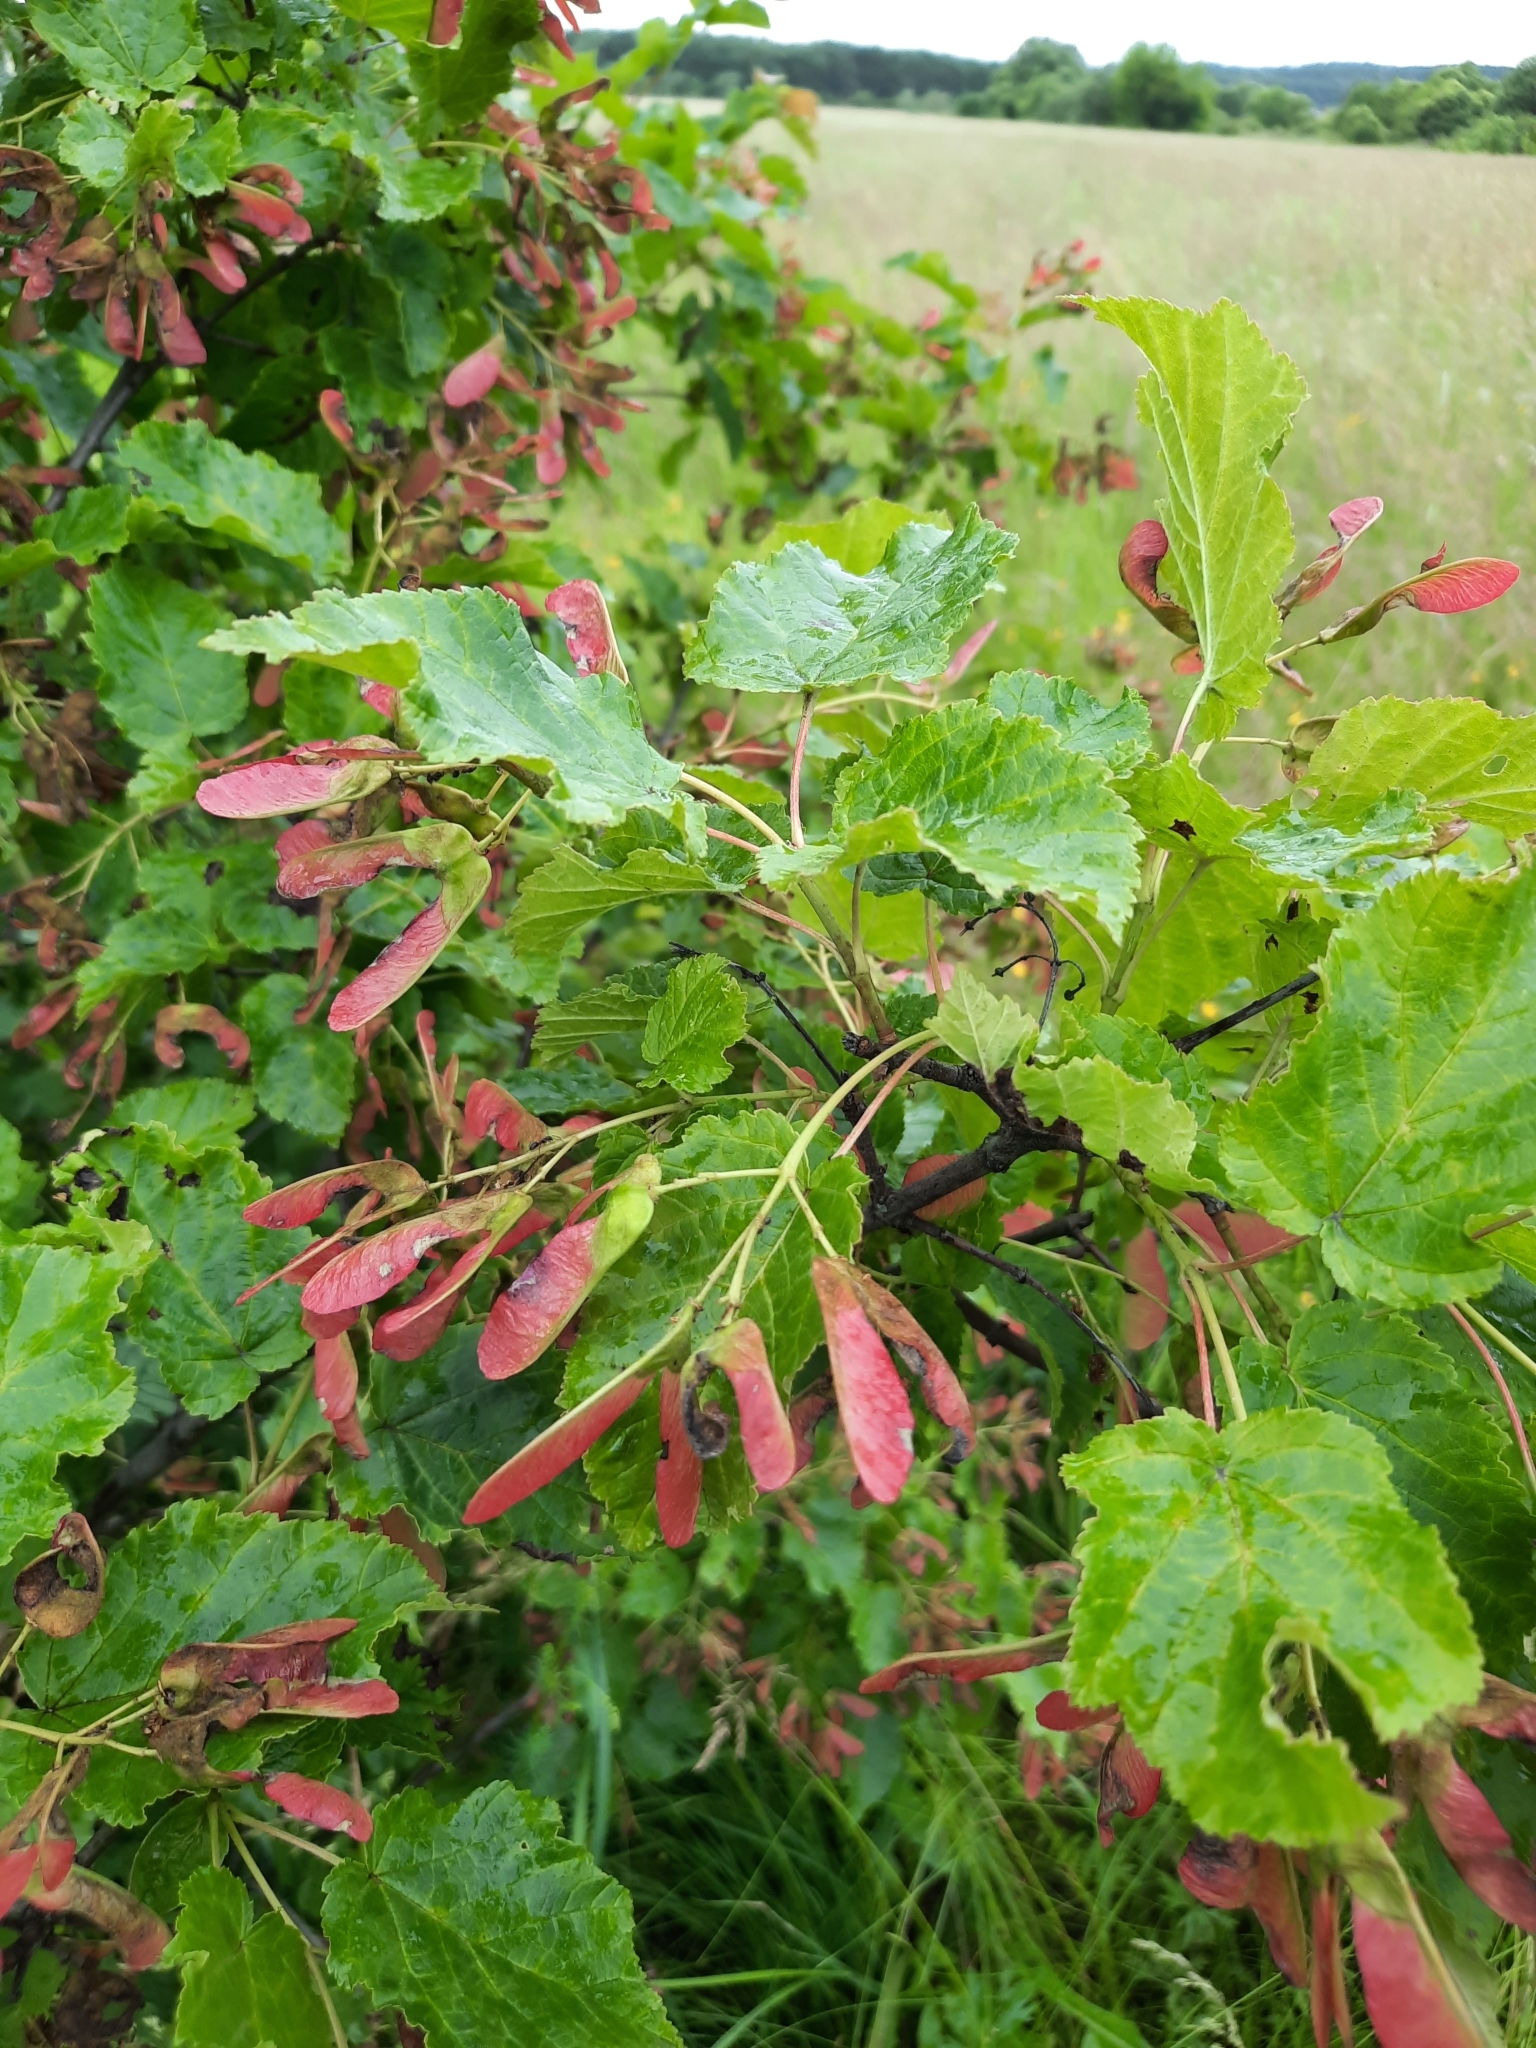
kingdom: Plantae
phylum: Tracheophyta
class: Magnoliopsida
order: Sapindales
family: Sapindaceae
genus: Acer
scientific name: Acer tataricum
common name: Tartar maple
